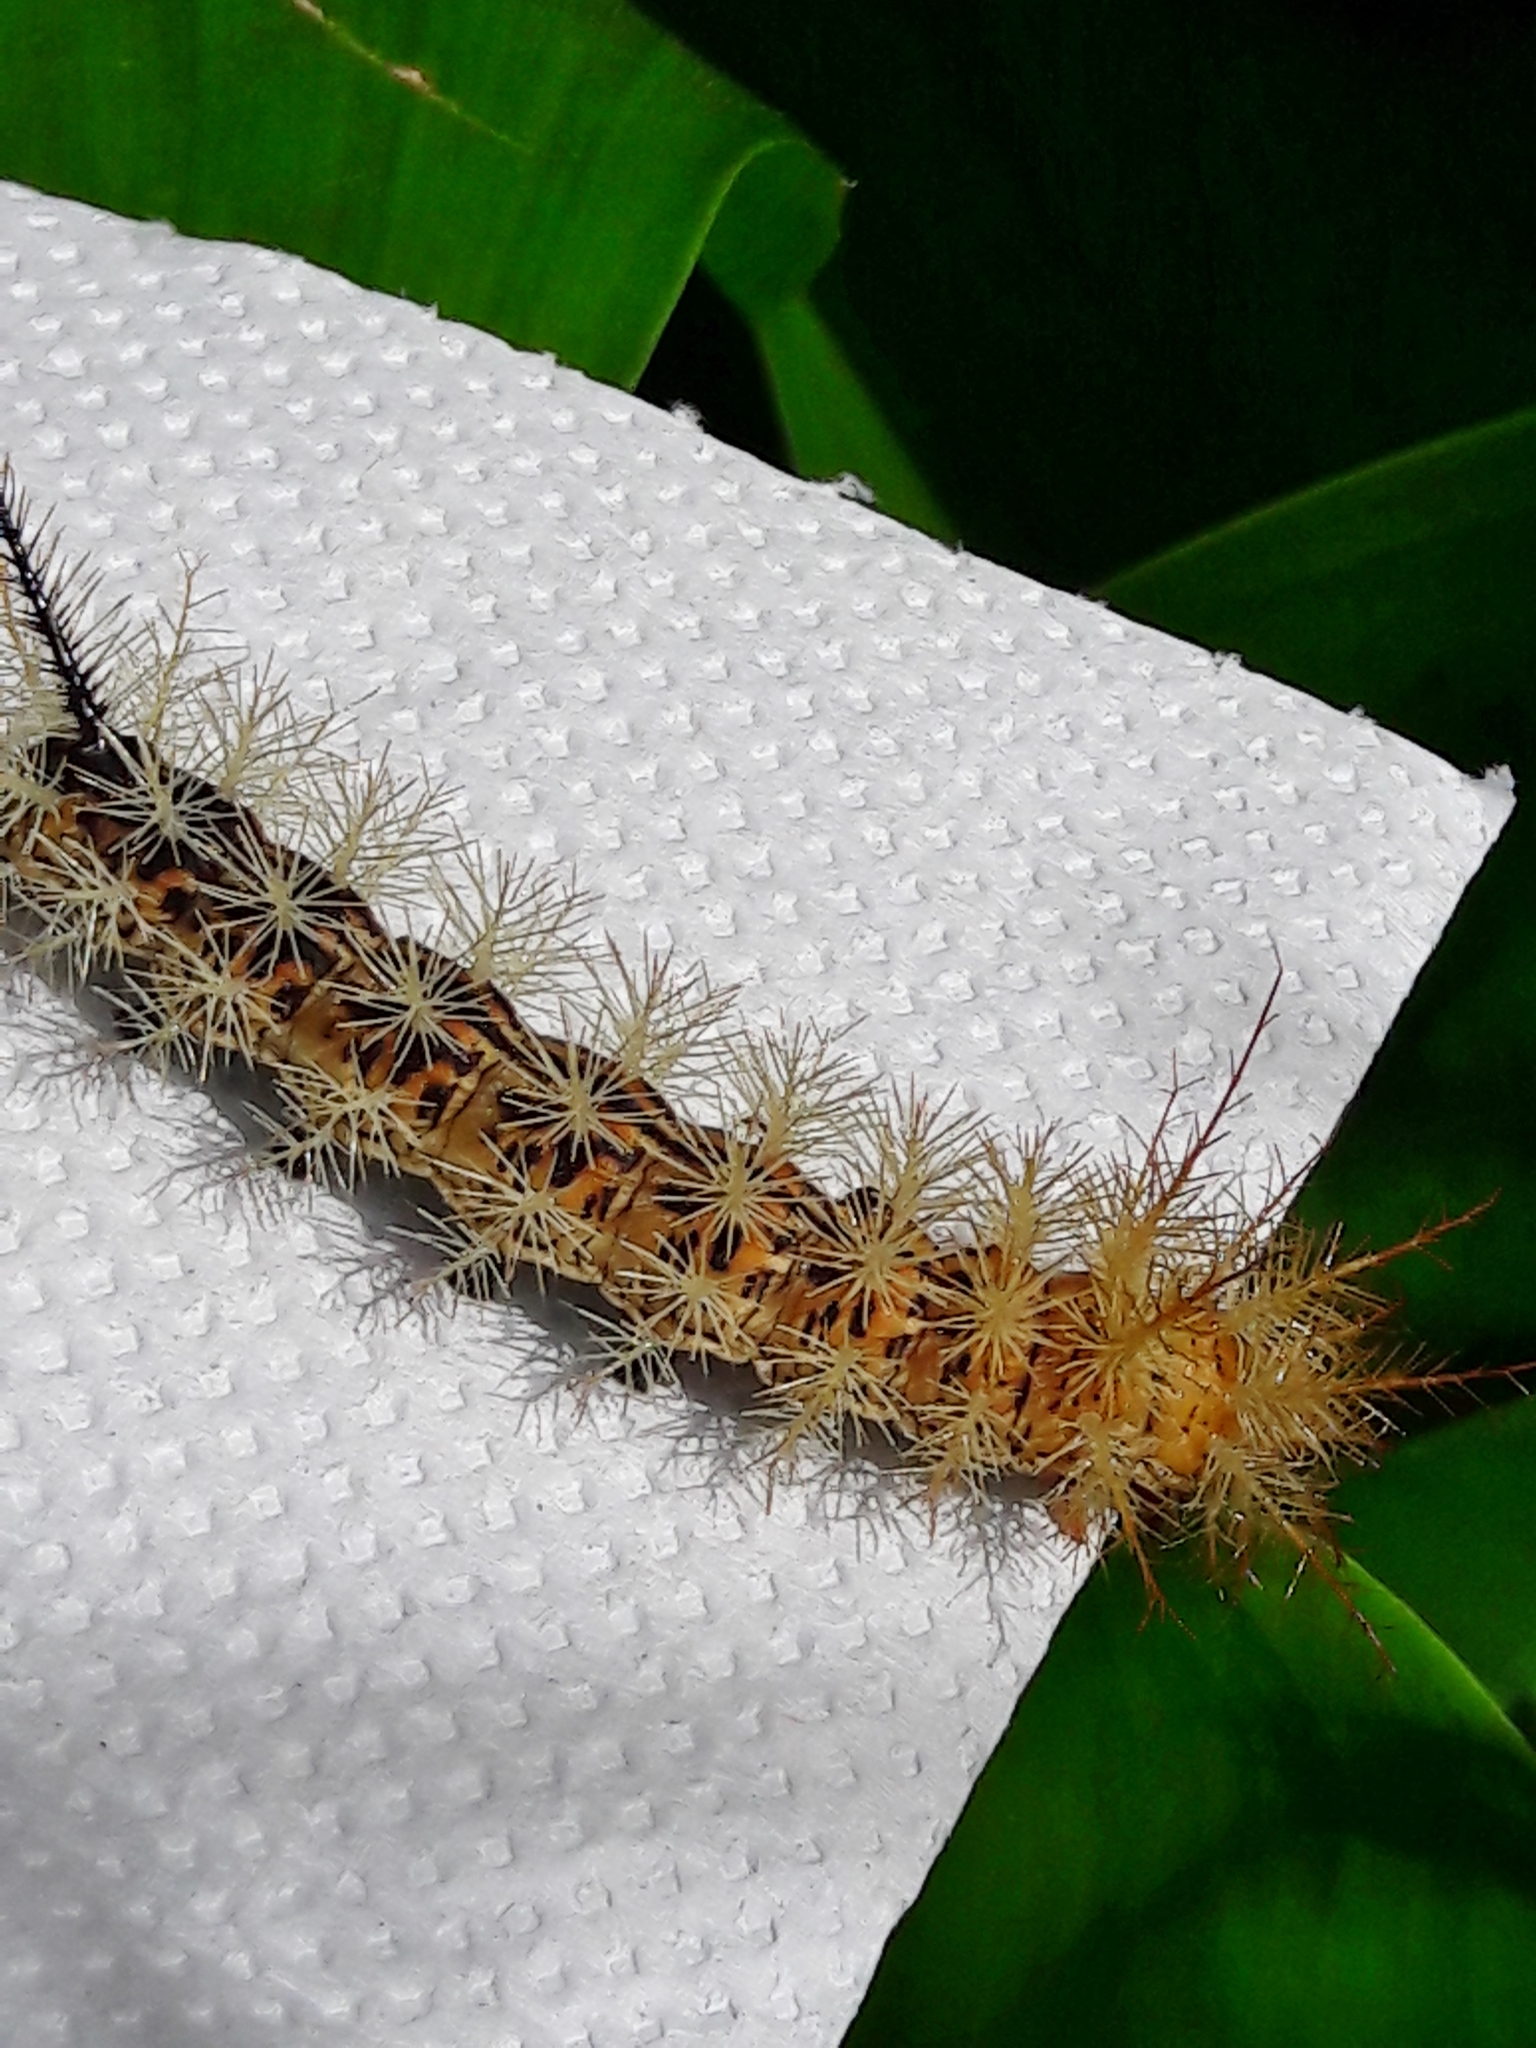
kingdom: Animalia
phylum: Arthropoda
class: Insecta
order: Lepidoptera
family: Saturniidae
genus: Pseudautomeris
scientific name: Pseudautomeris luteata
